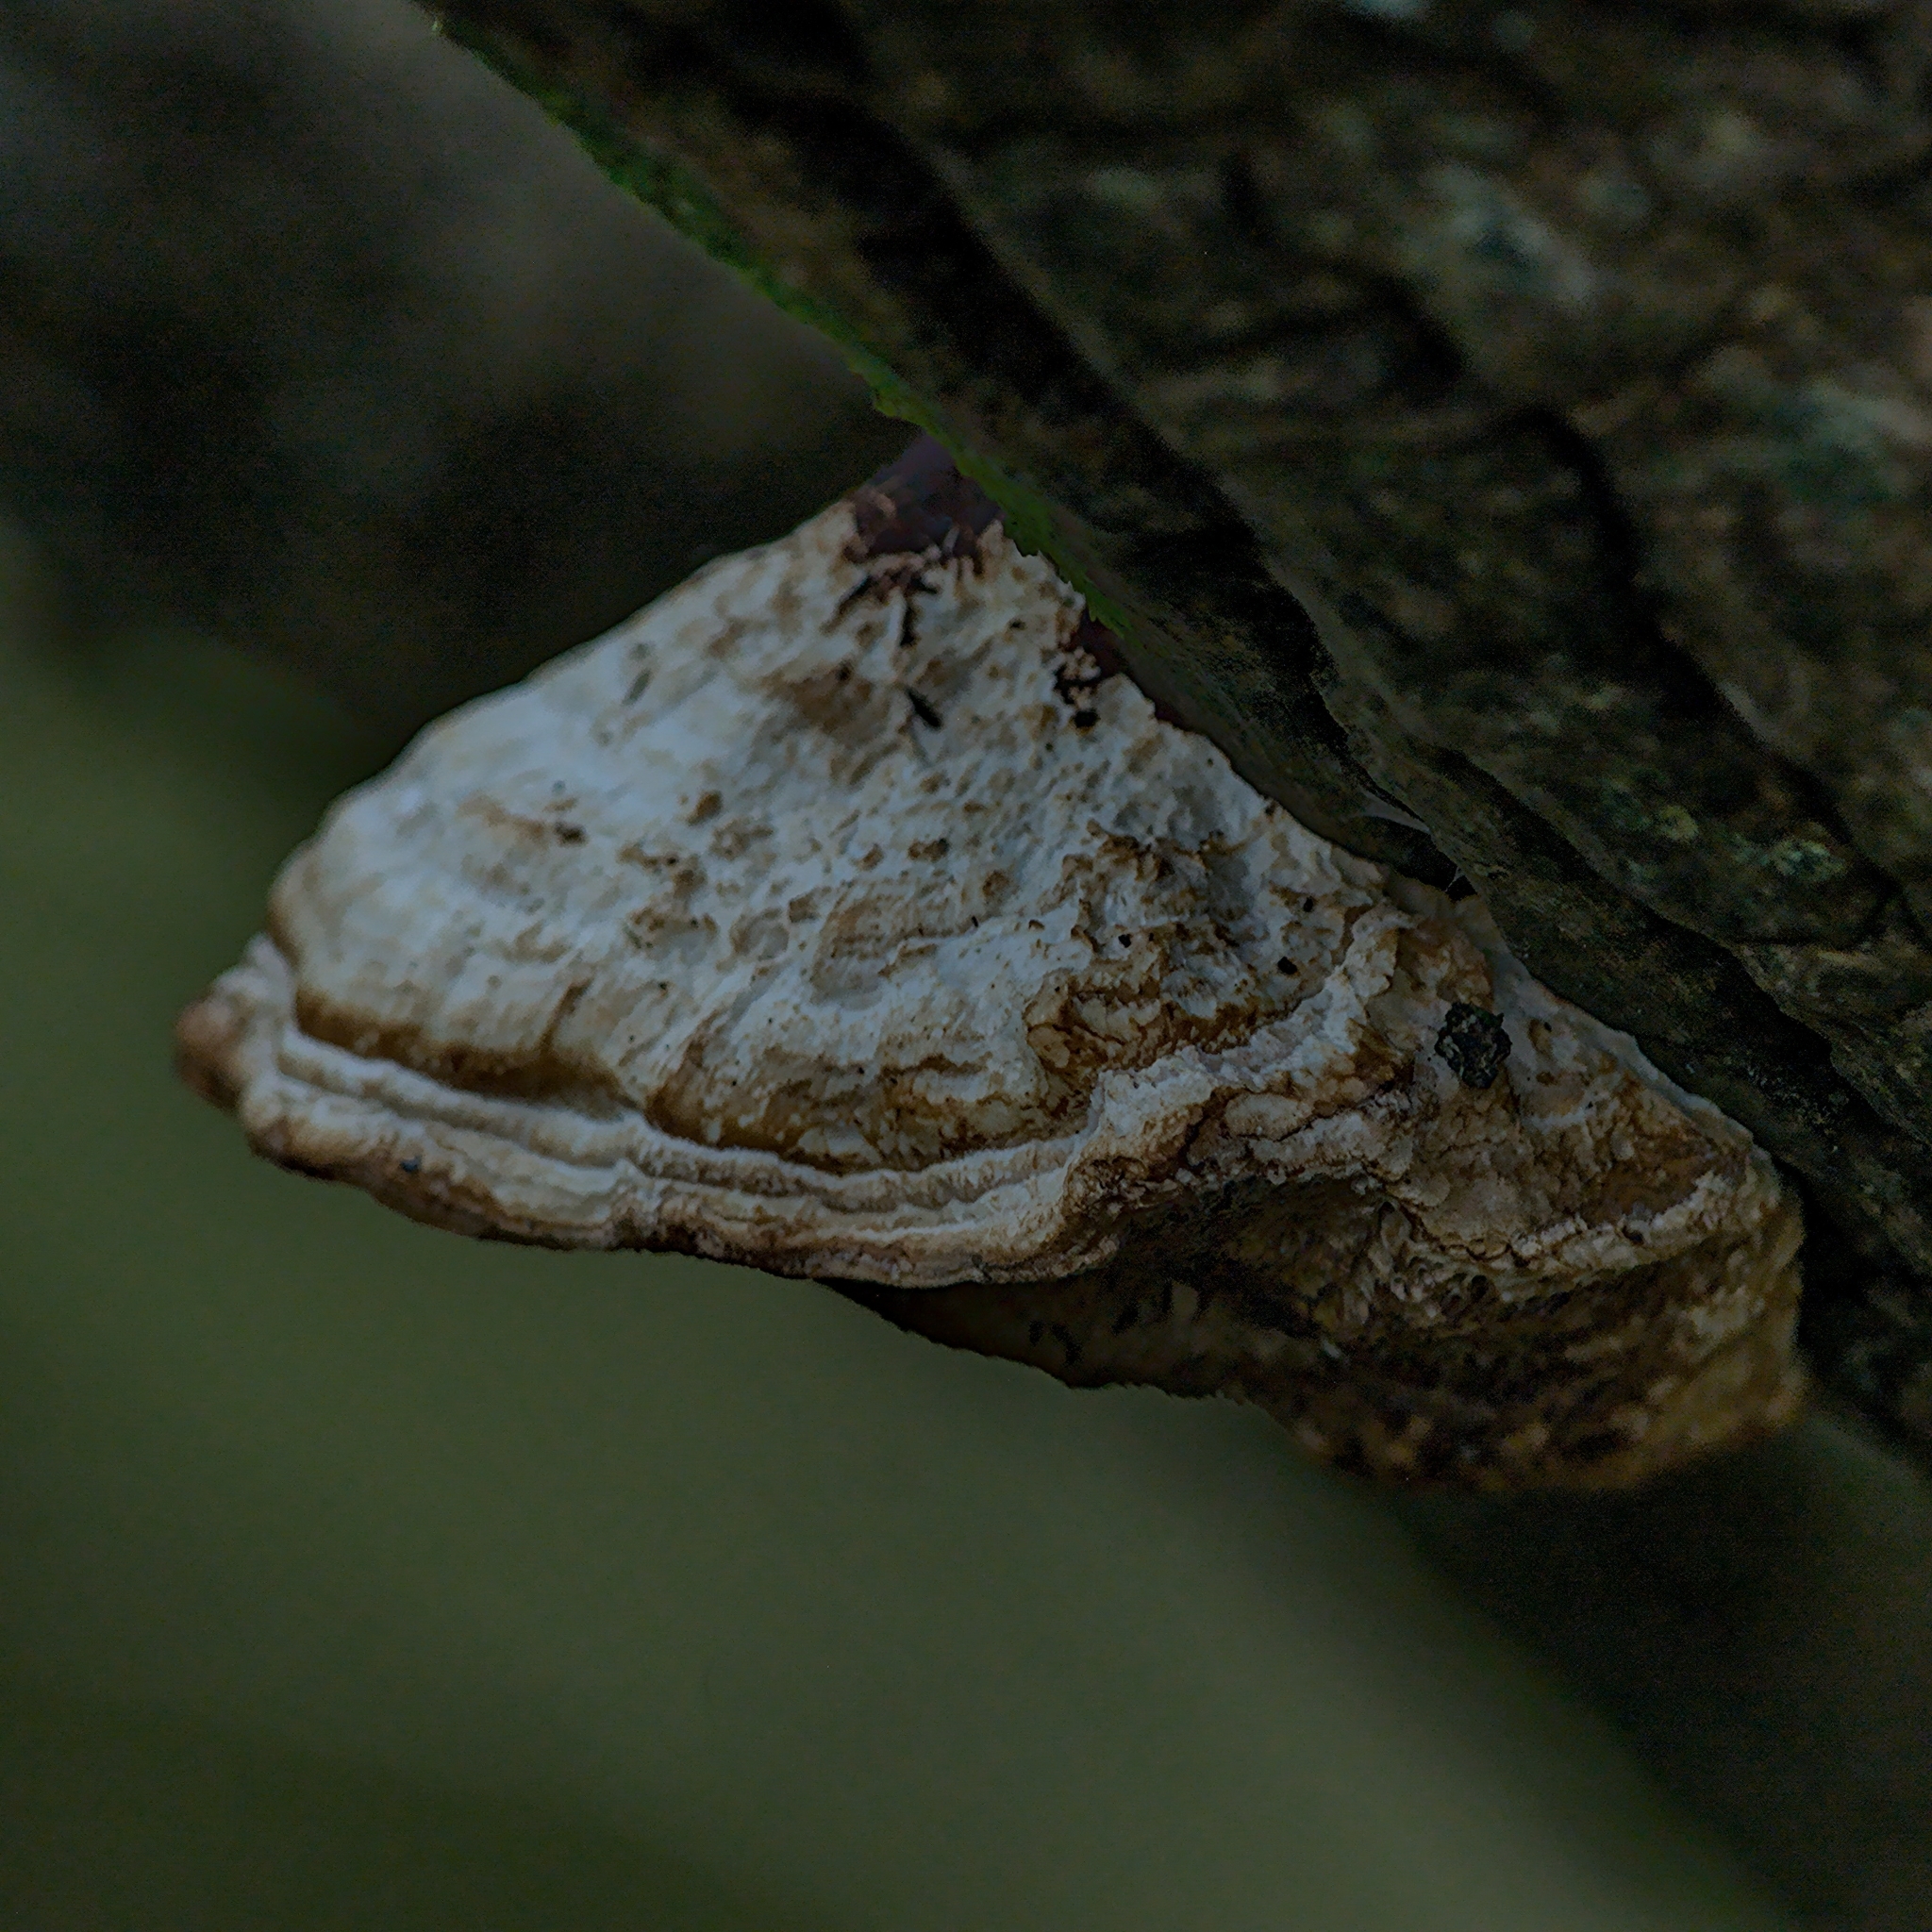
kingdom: Fungi
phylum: Basidiomycota
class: Agaricomycetes
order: Polyporales
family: Polyporaceae
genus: Daedaleopsis
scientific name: Daedaleopsis confragosa
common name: Blushing bracket
